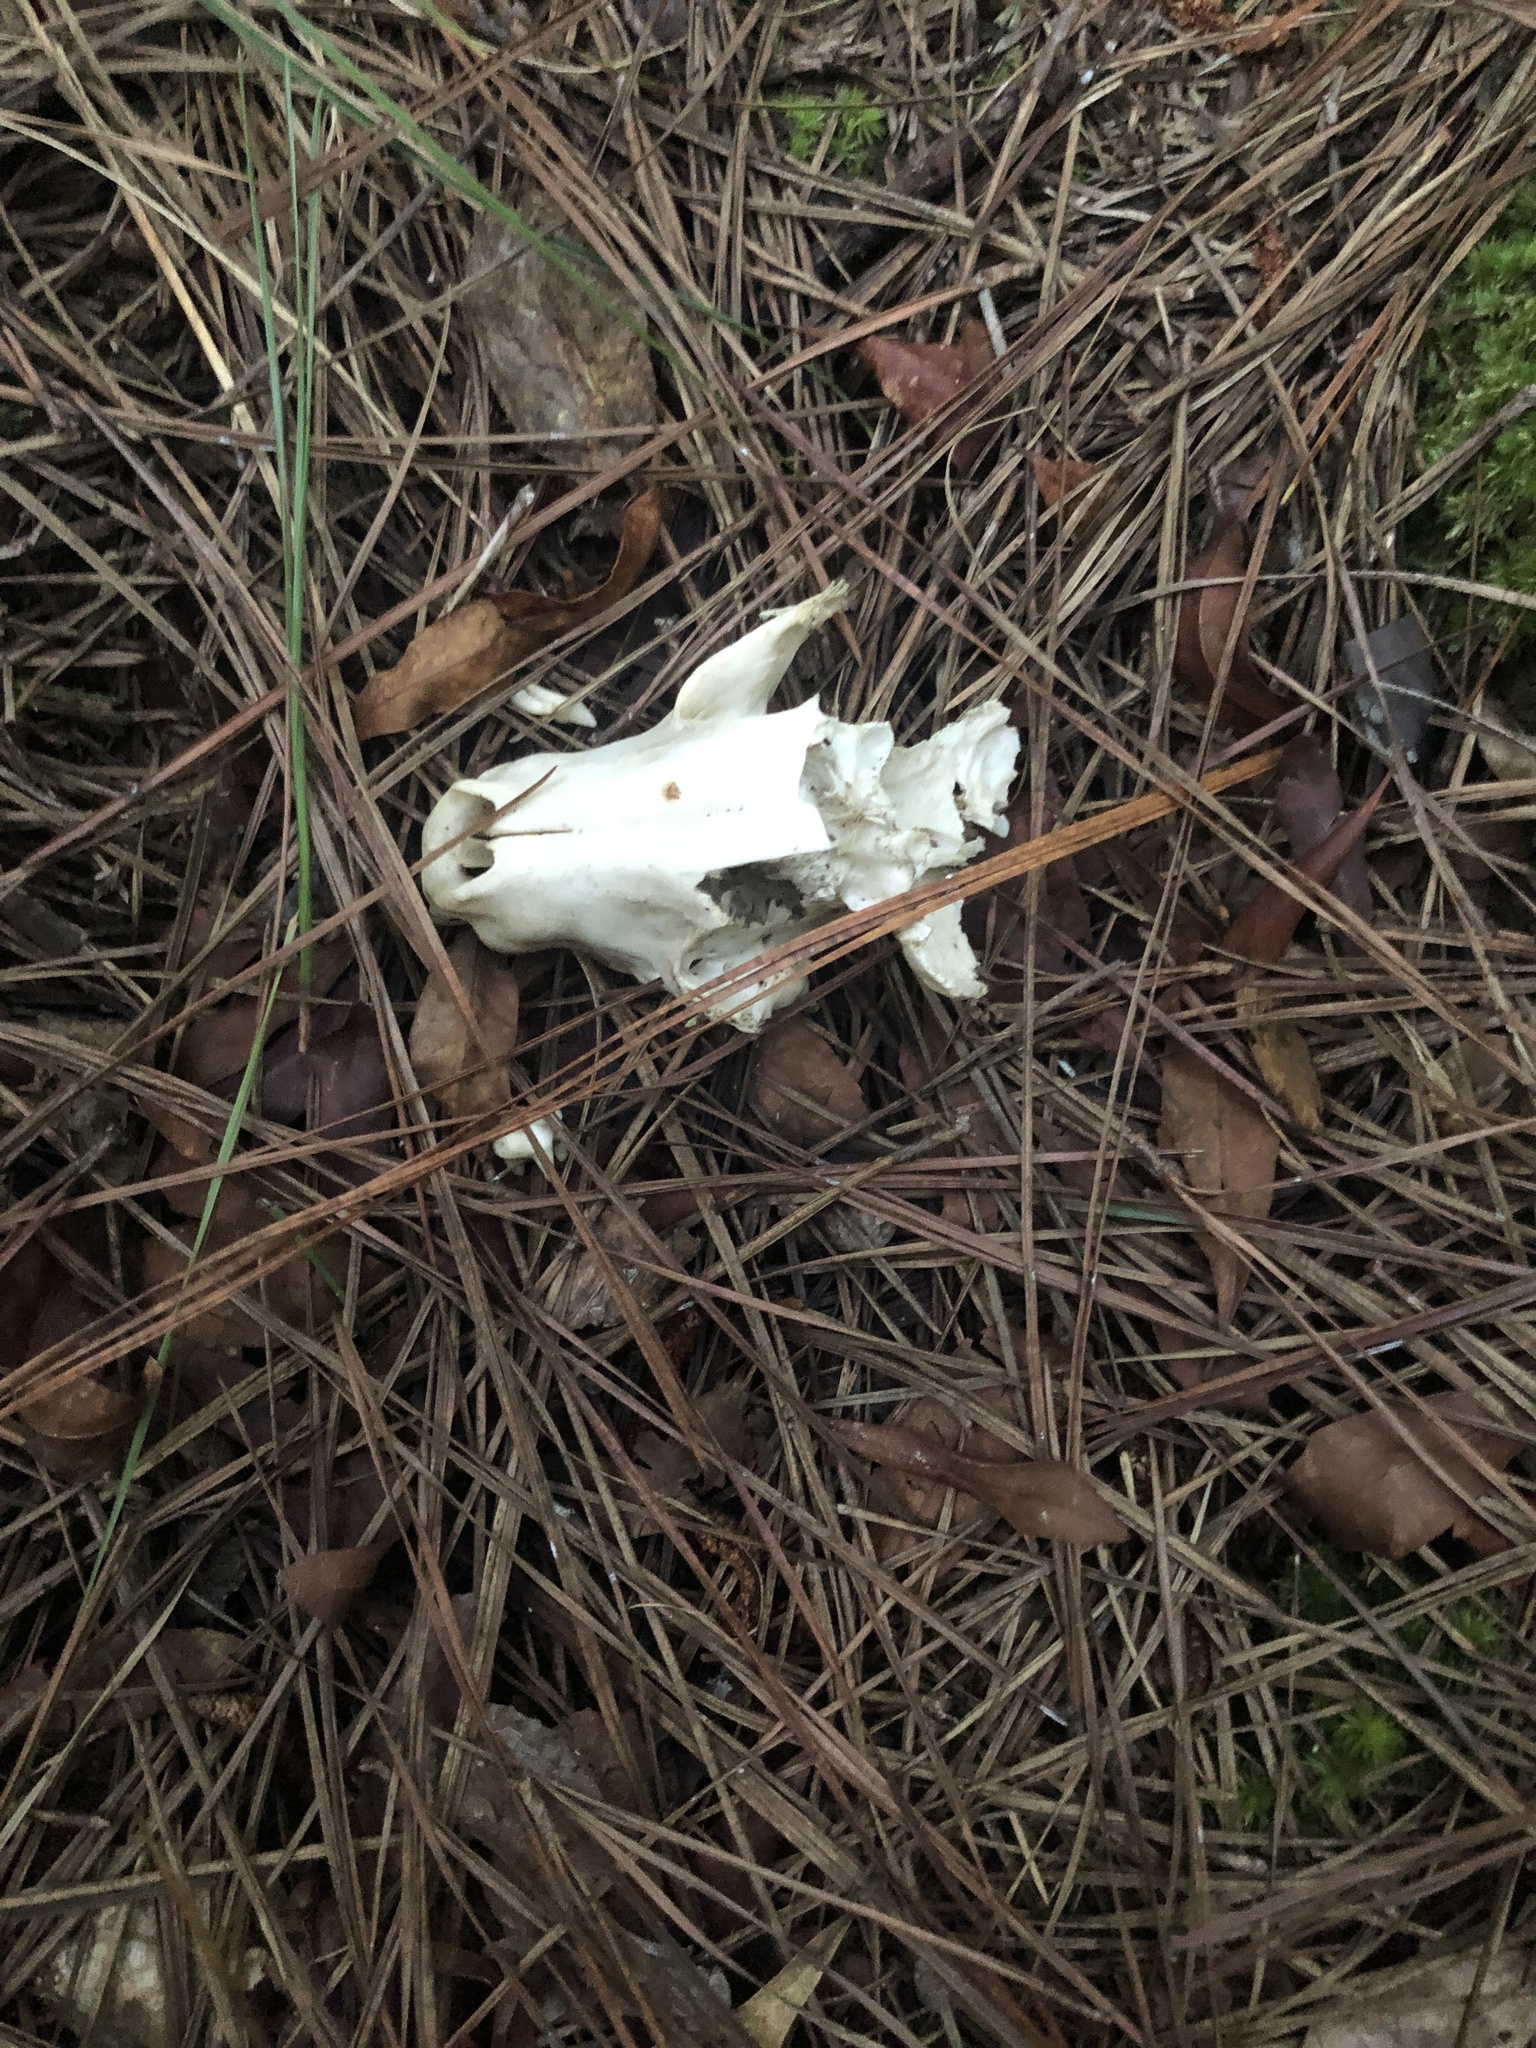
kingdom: Animalia
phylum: Chordata
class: Mammalia
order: Carnivora
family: Procyonidae
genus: Procyon
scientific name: Procyon lotor
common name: Raccoon
